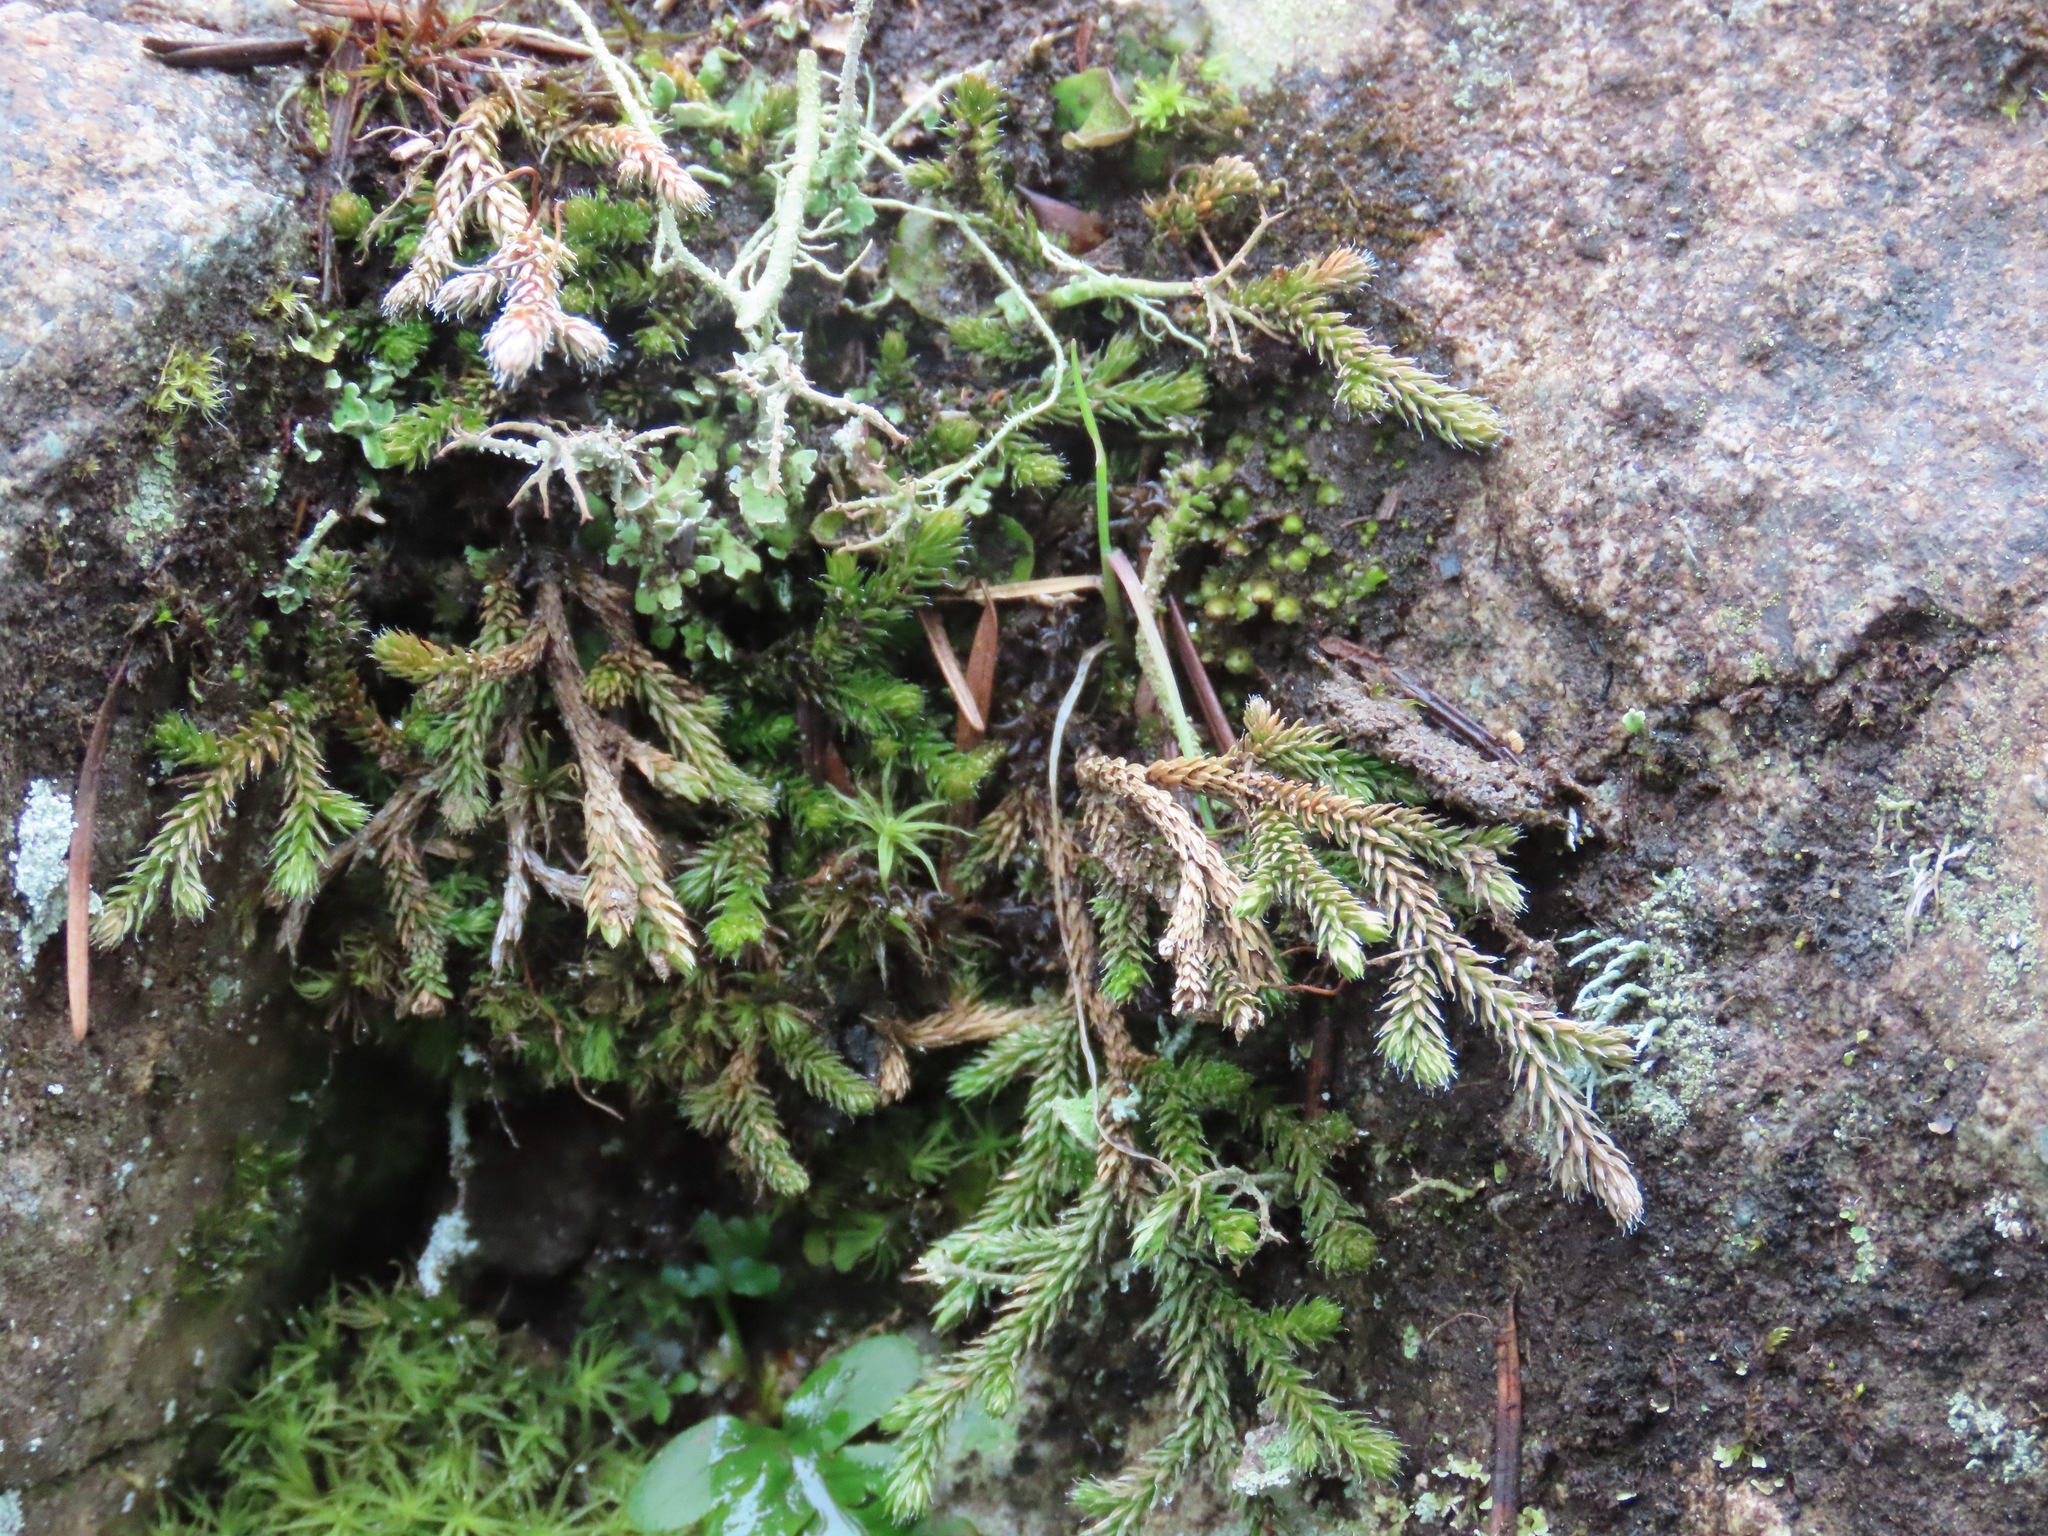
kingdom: Plantae
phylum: Tracheophyta
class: Lycopodiopsida
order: Selaginellales
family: Selaginellaceae
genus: Selaginella
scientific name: Selaginella wallacei
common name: Wallace's selaginella
